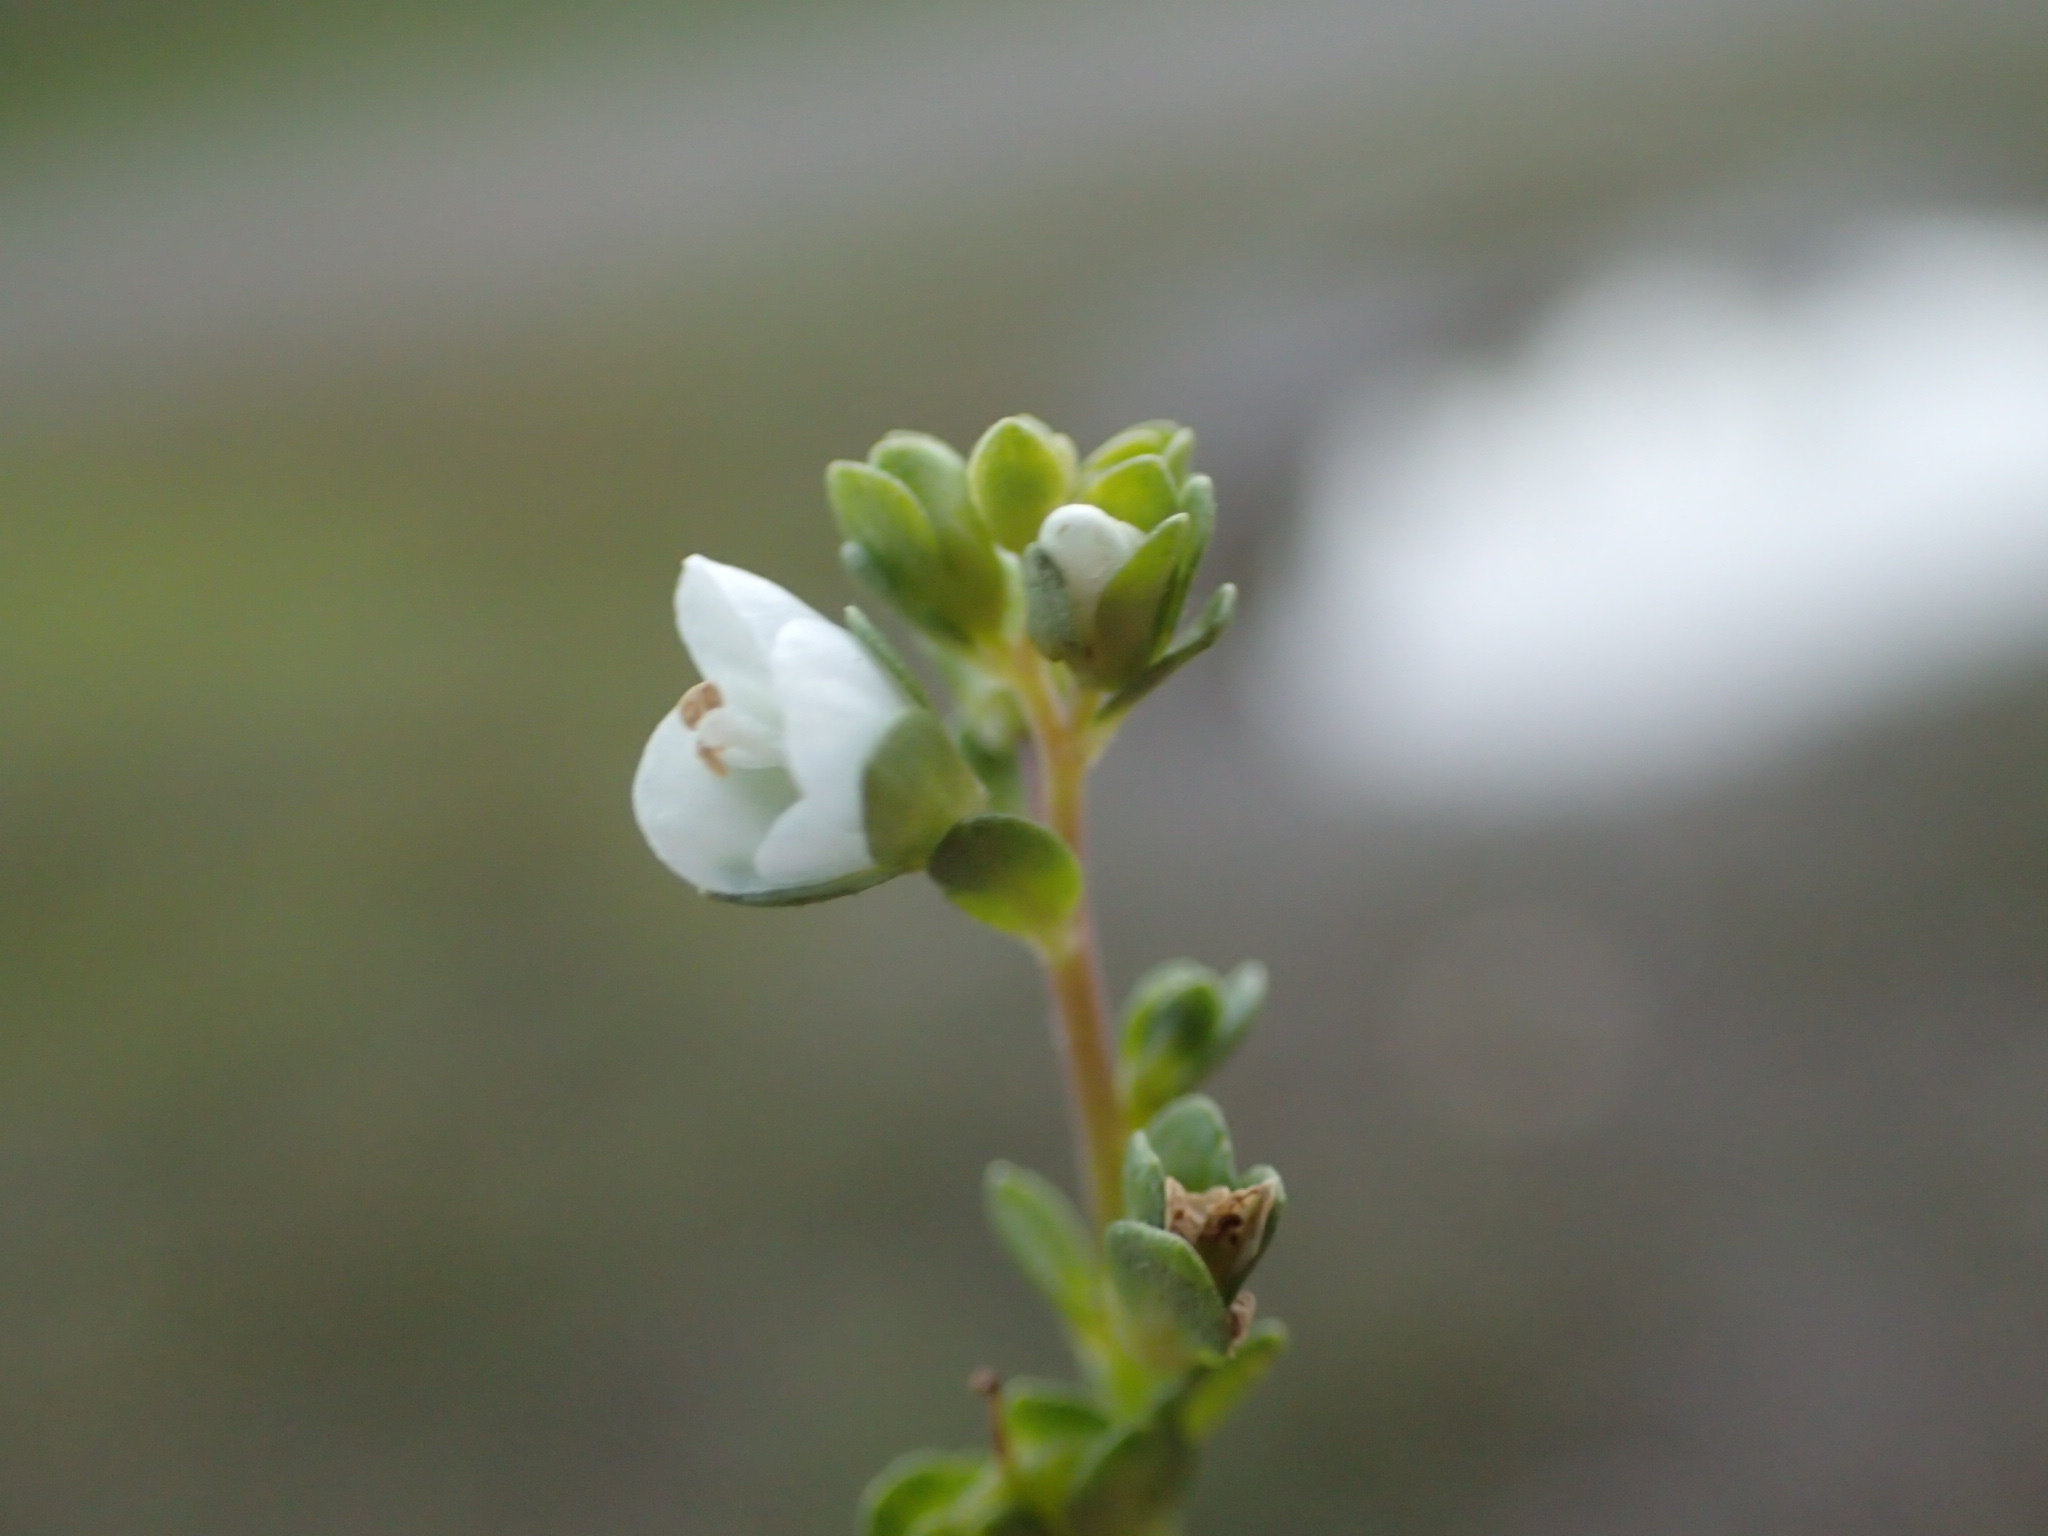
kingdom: Plantae
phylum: Tracheophyta
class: Magnoliopsida
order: Lamiales
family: Plantaginaceae
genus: Veronica
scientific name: Veronica serpyllifolia
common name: Thyme-leaved speedwell
